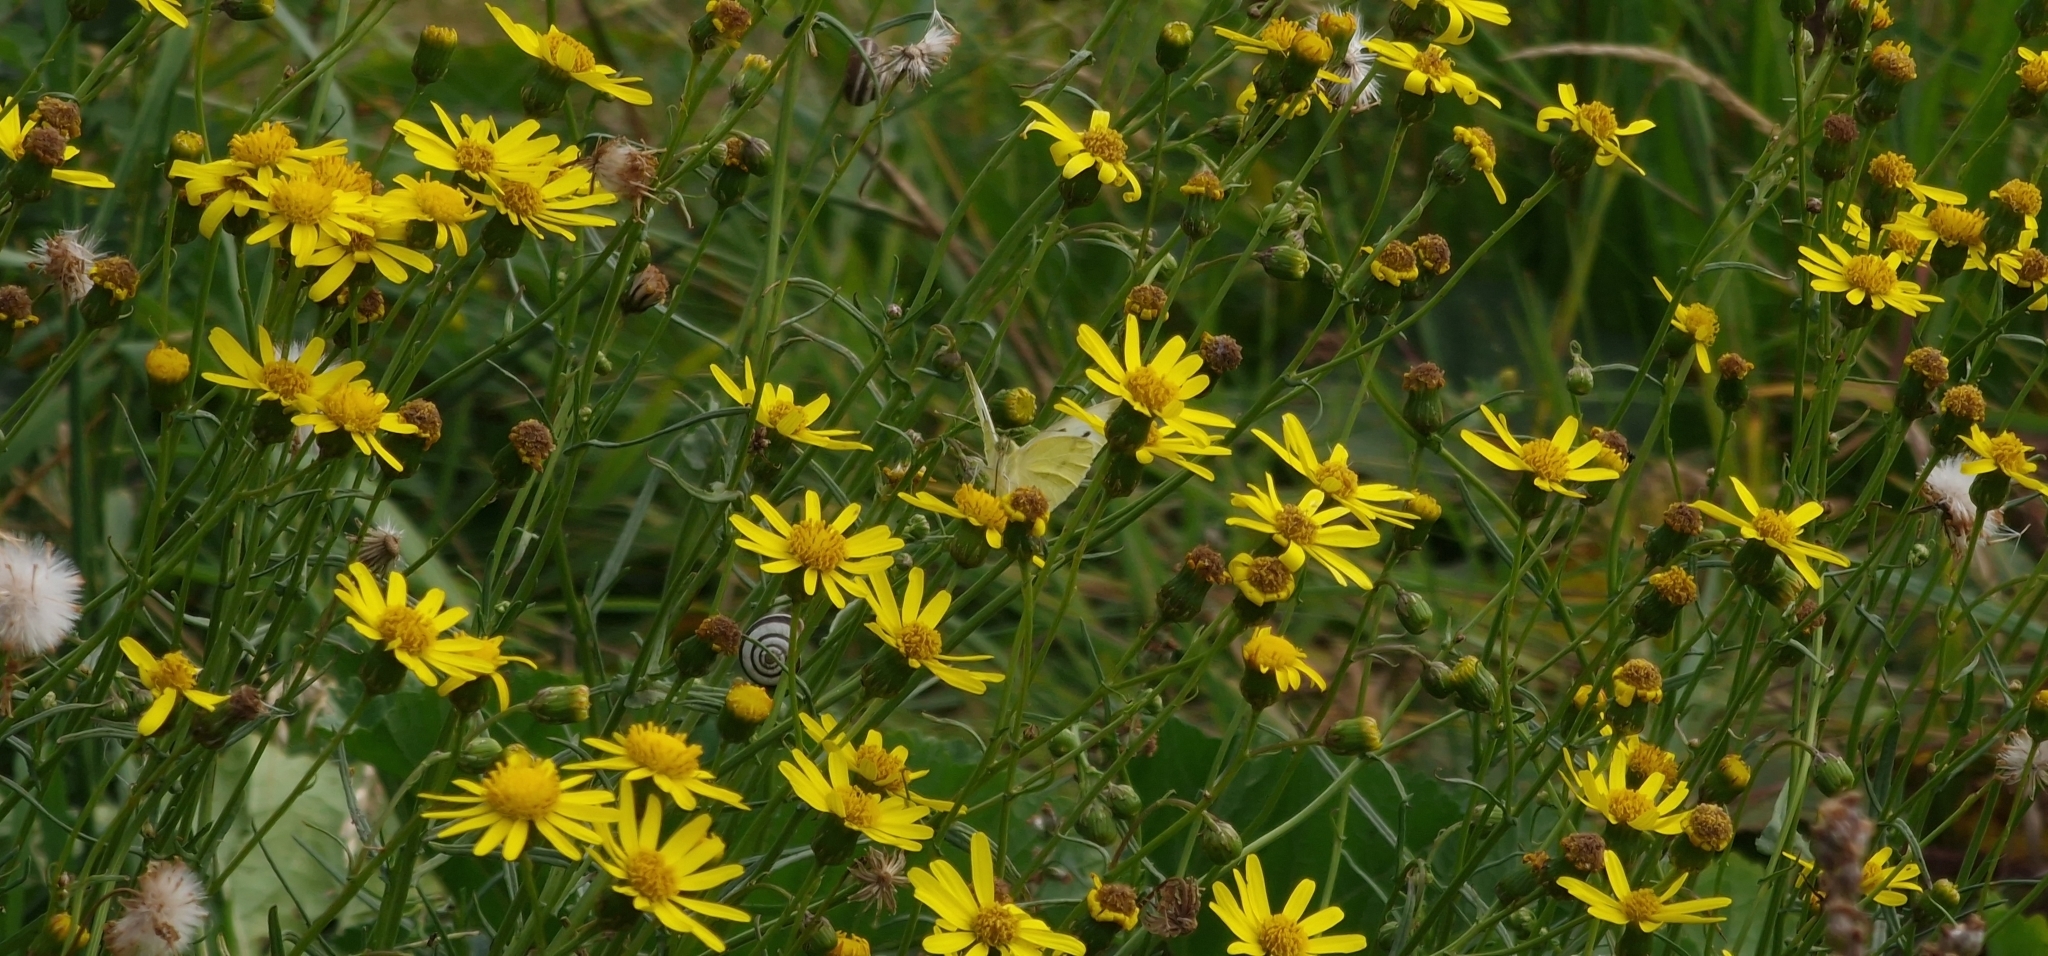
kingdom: Animalia
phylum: Arthropoda
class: Insecta
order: Lepidoptera
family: Pieridae
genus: Pieris
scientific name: Pieris rapae
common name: Small white
